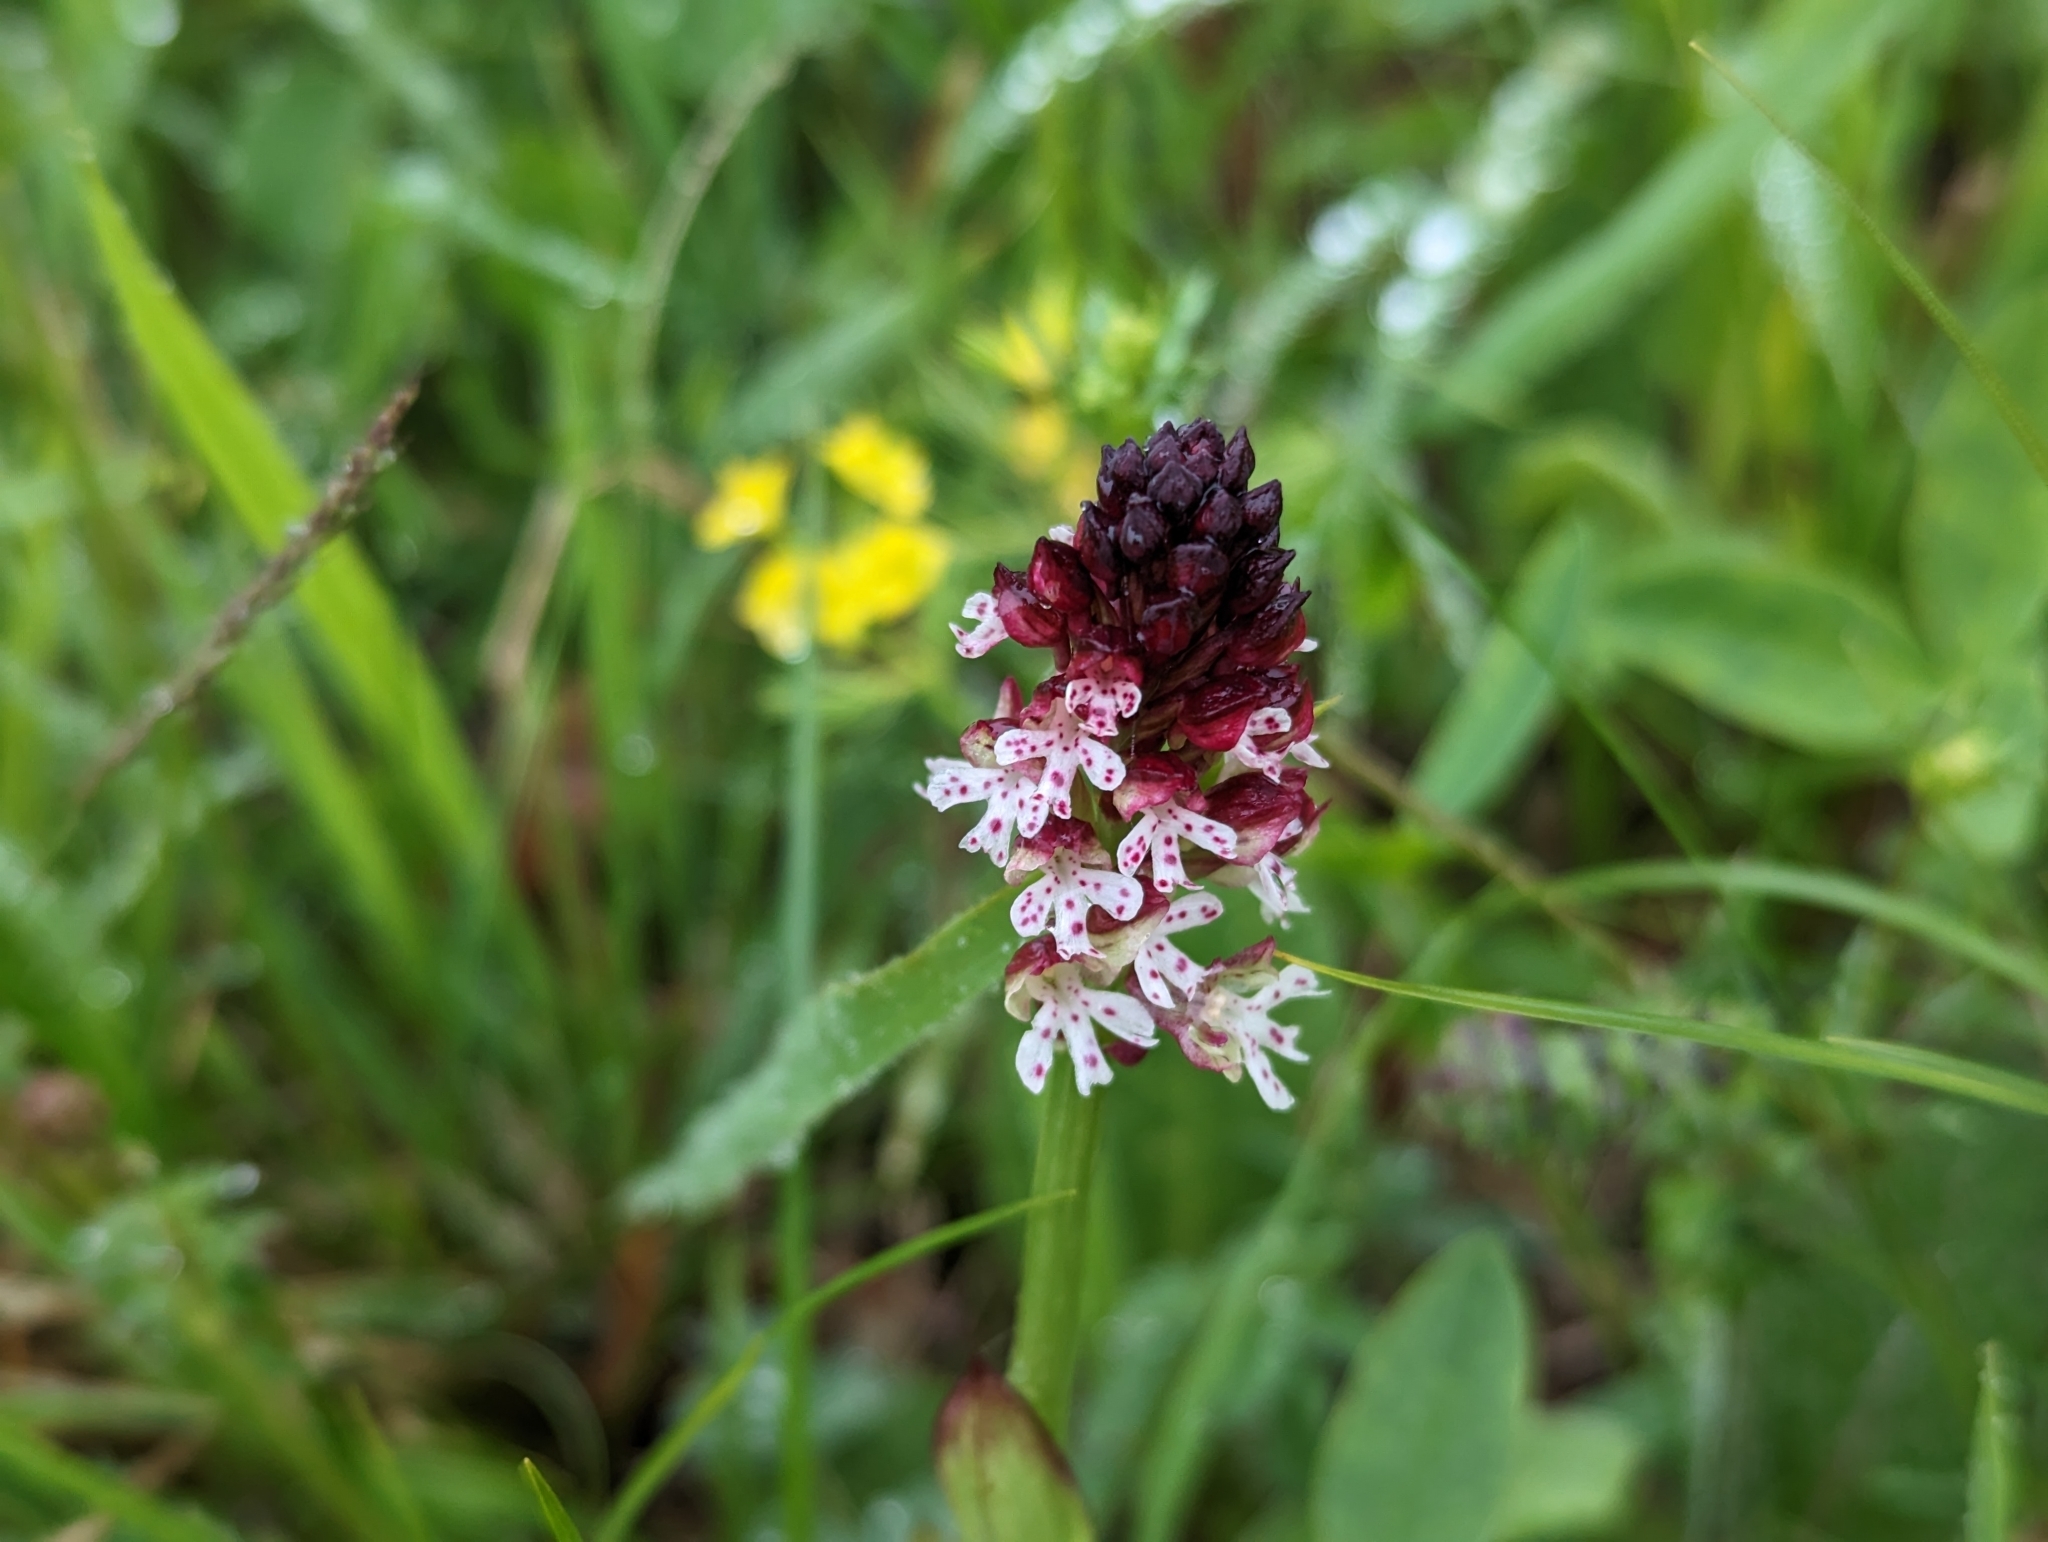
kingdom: Plantae
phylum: Tracheophyta
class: Liliopsida
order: Asparagales
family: Orchidaceae
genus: Neotinea
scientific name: Neotinea ustulata
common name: Burnt orchid
